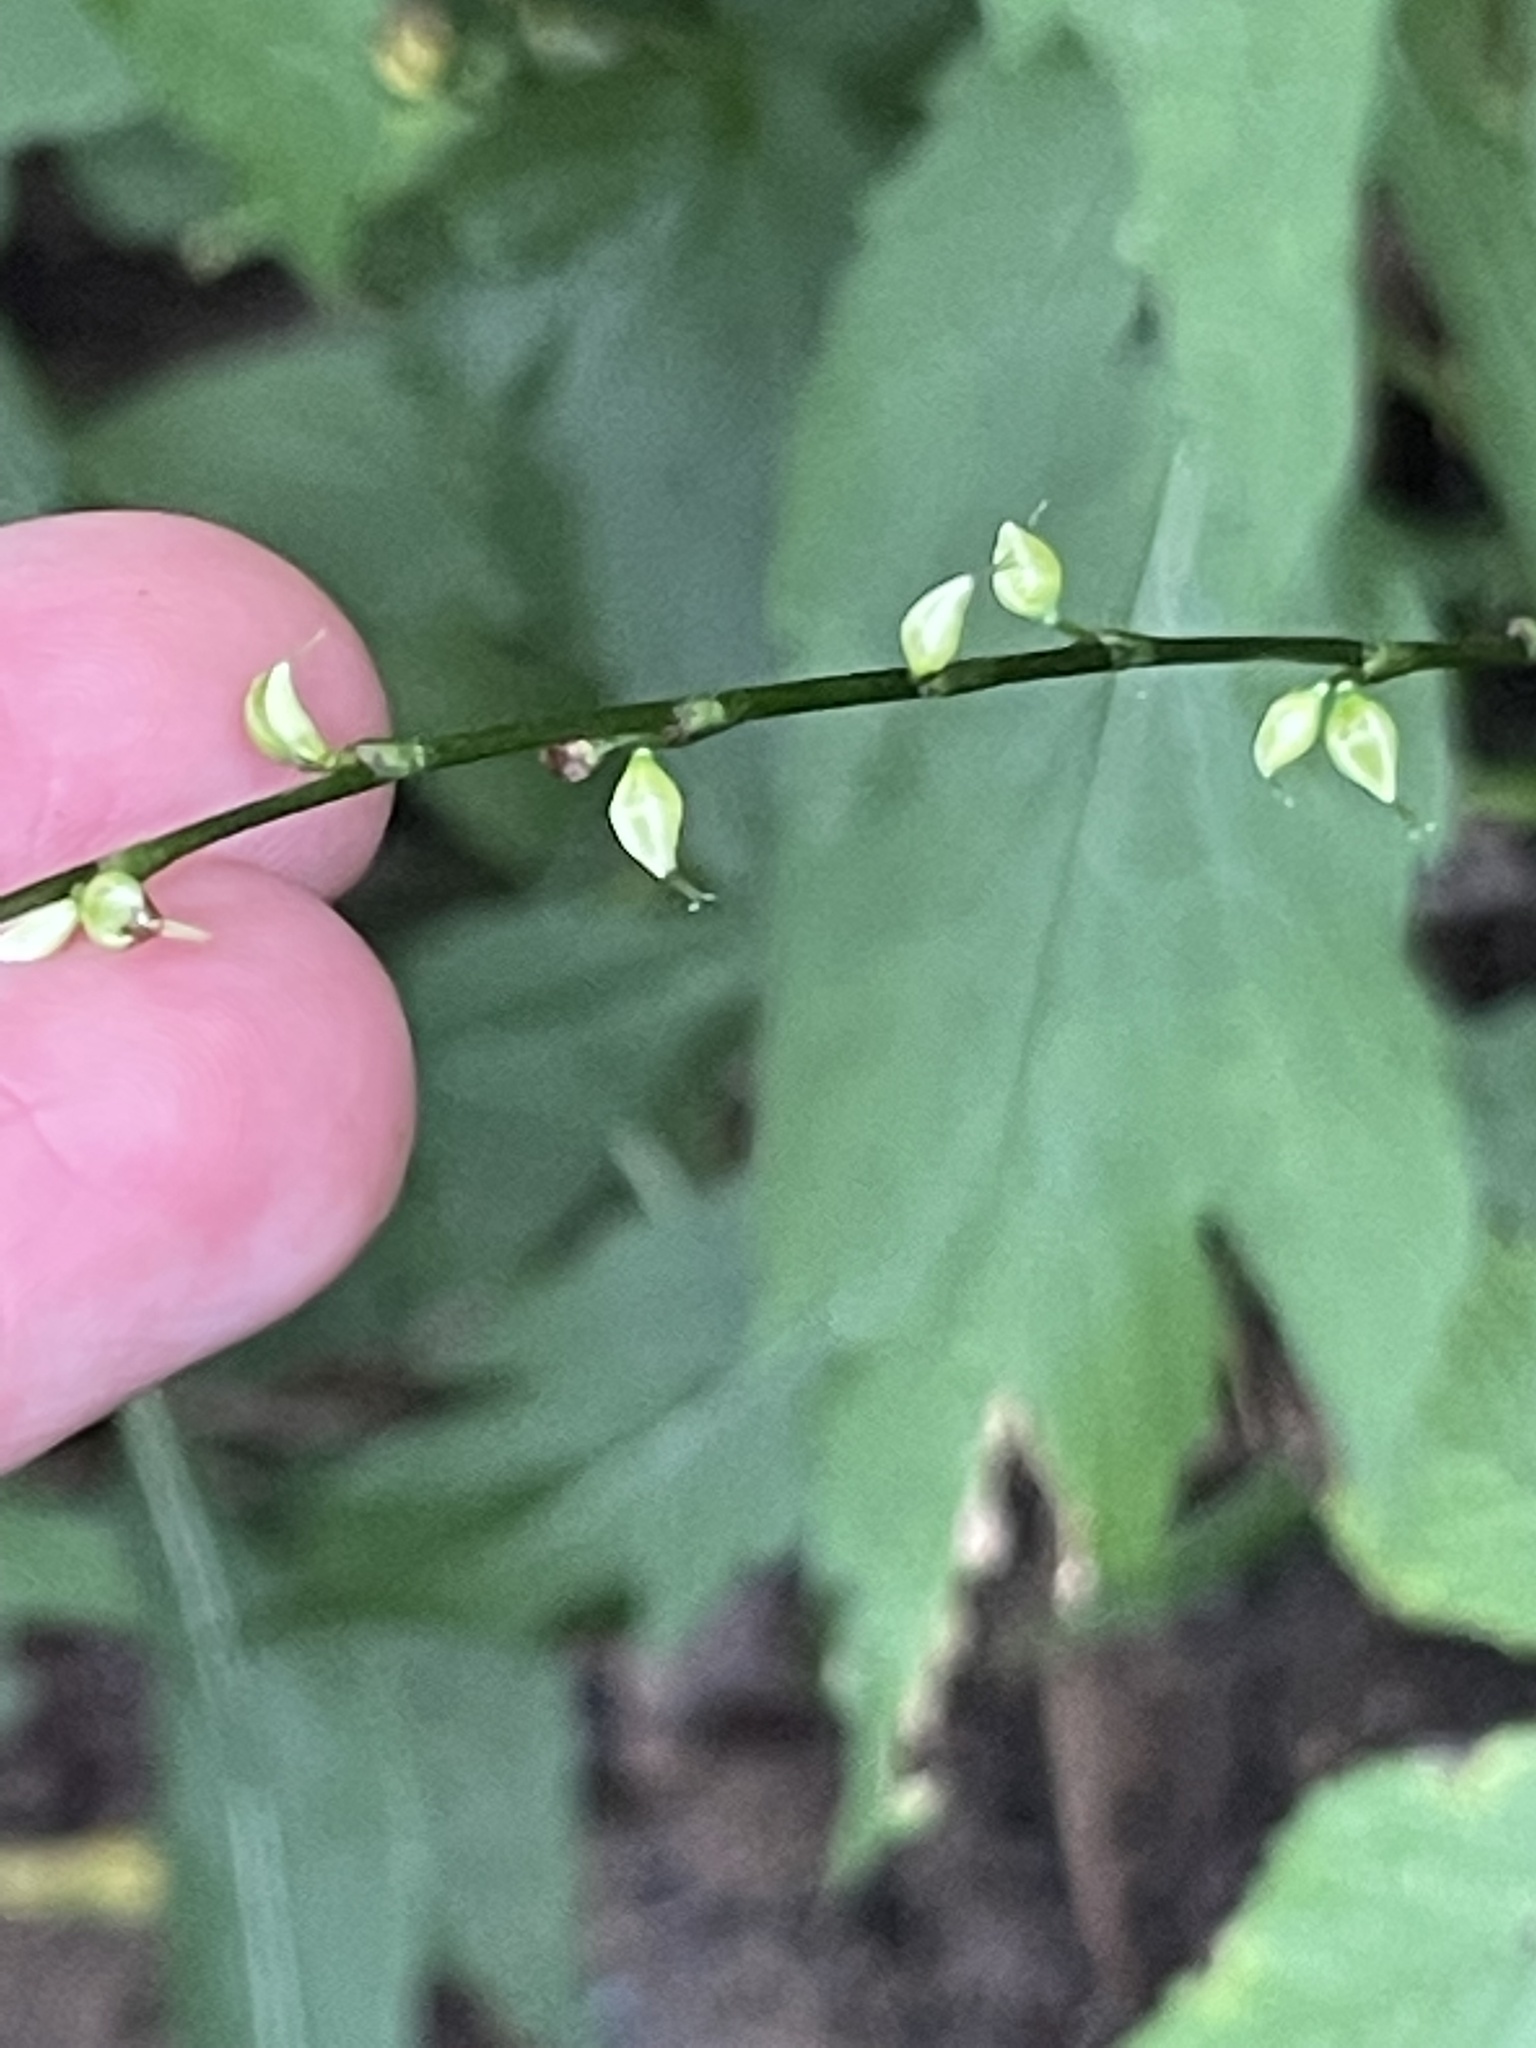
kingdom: Plantae
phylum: Tracheophyta
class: Magnoliopsida
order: Caryophyllales
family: Polygonaceae
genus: Persicaria
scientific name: Persicaria virginiana
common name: Jumpseed
